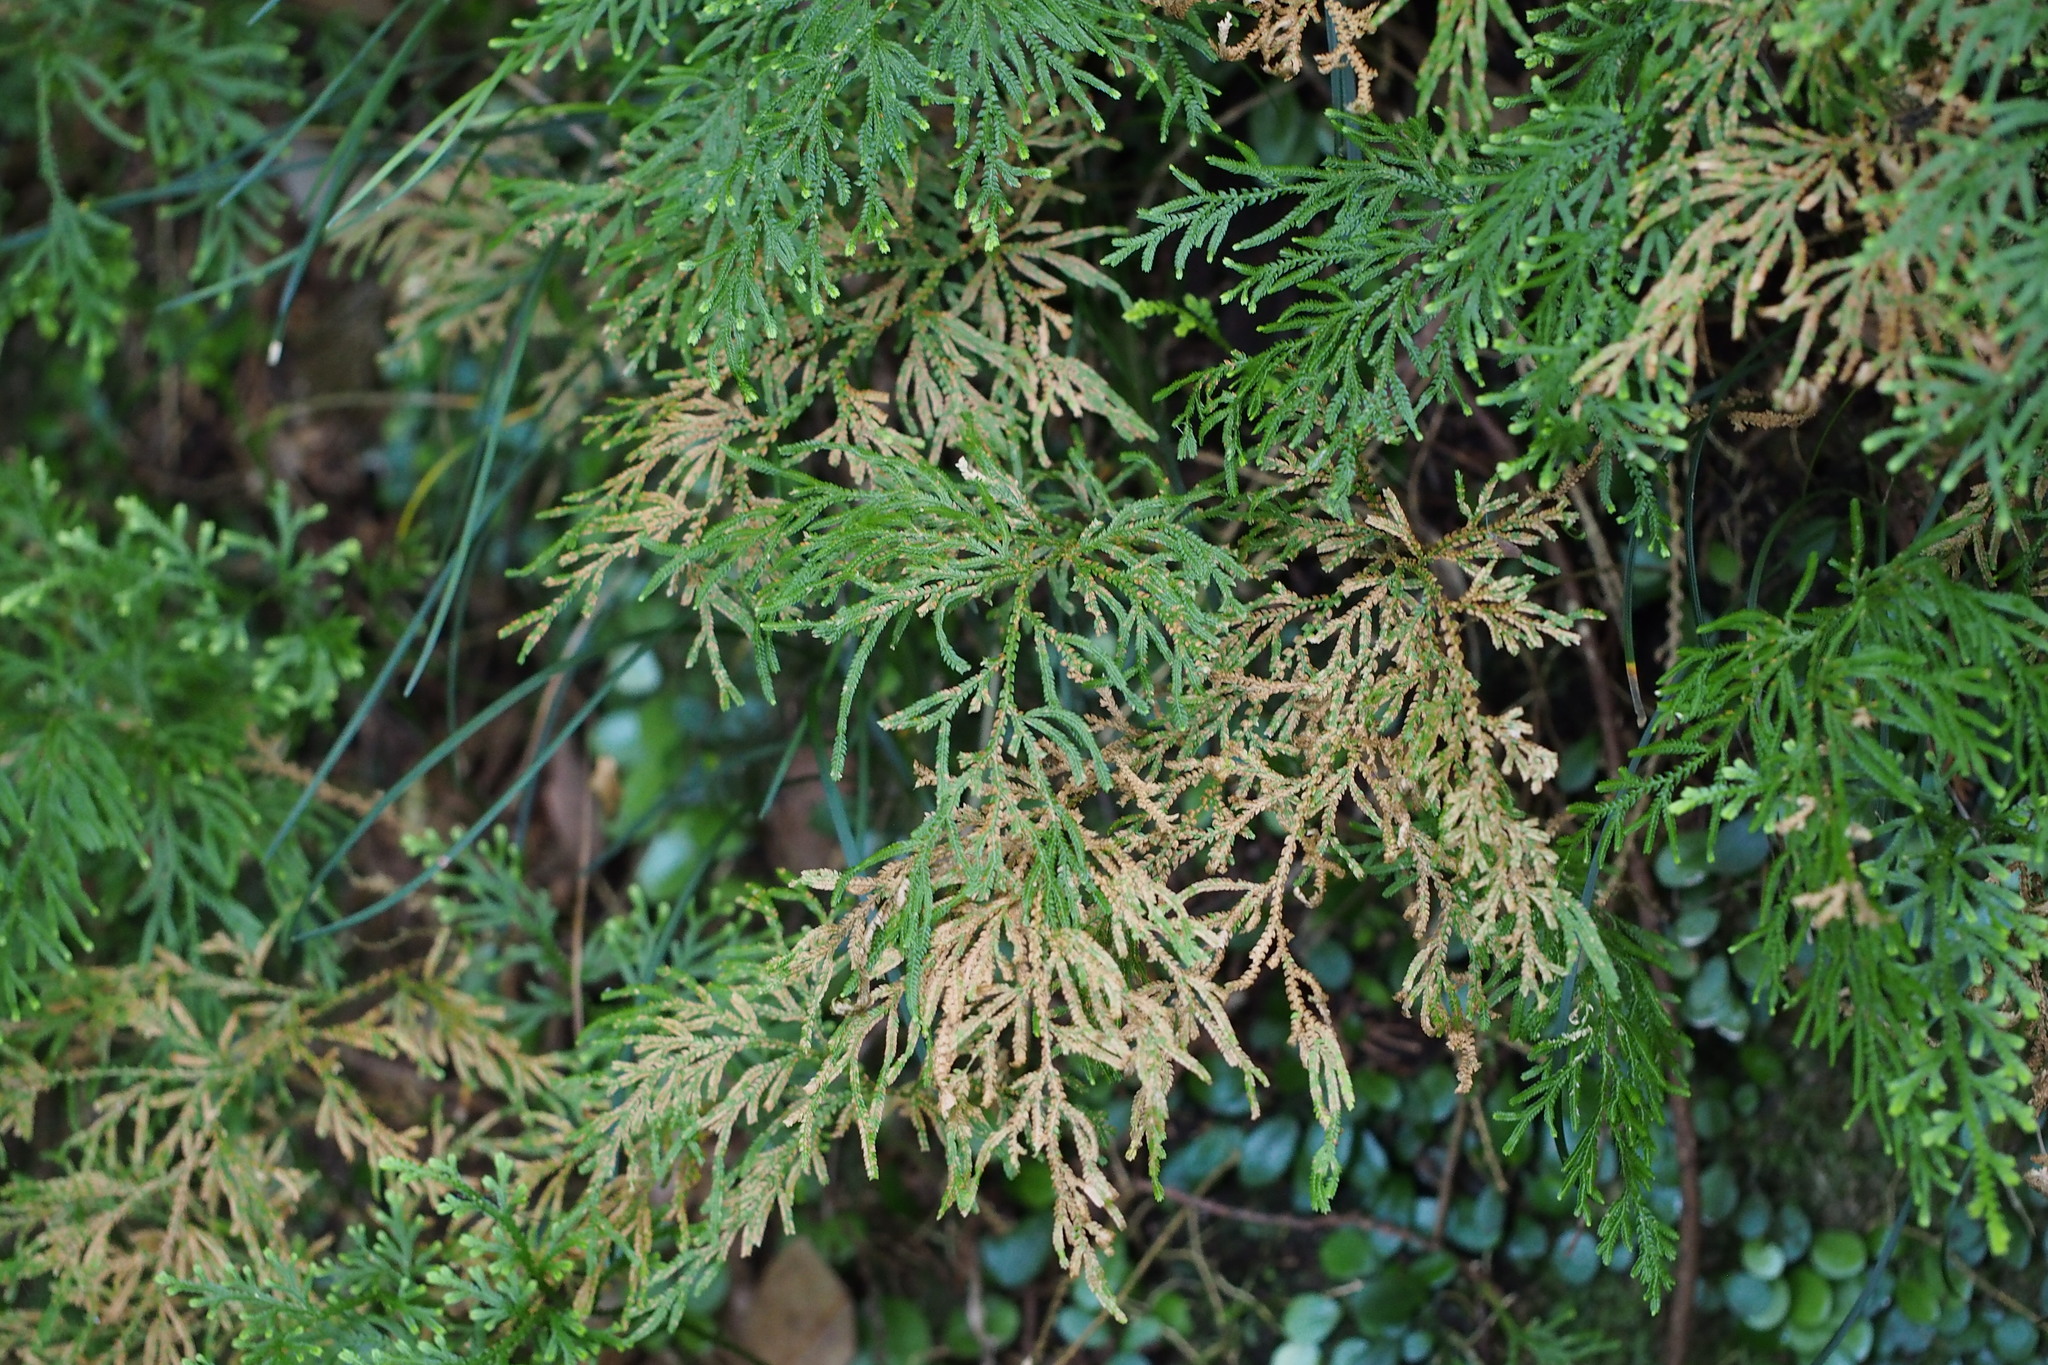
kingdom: Plantae
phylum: Tracheophyta
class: Lycopodiopsida
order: Selaginellales
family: Selaginellaceae
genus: Selaginella
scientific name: Selaginella involvens
